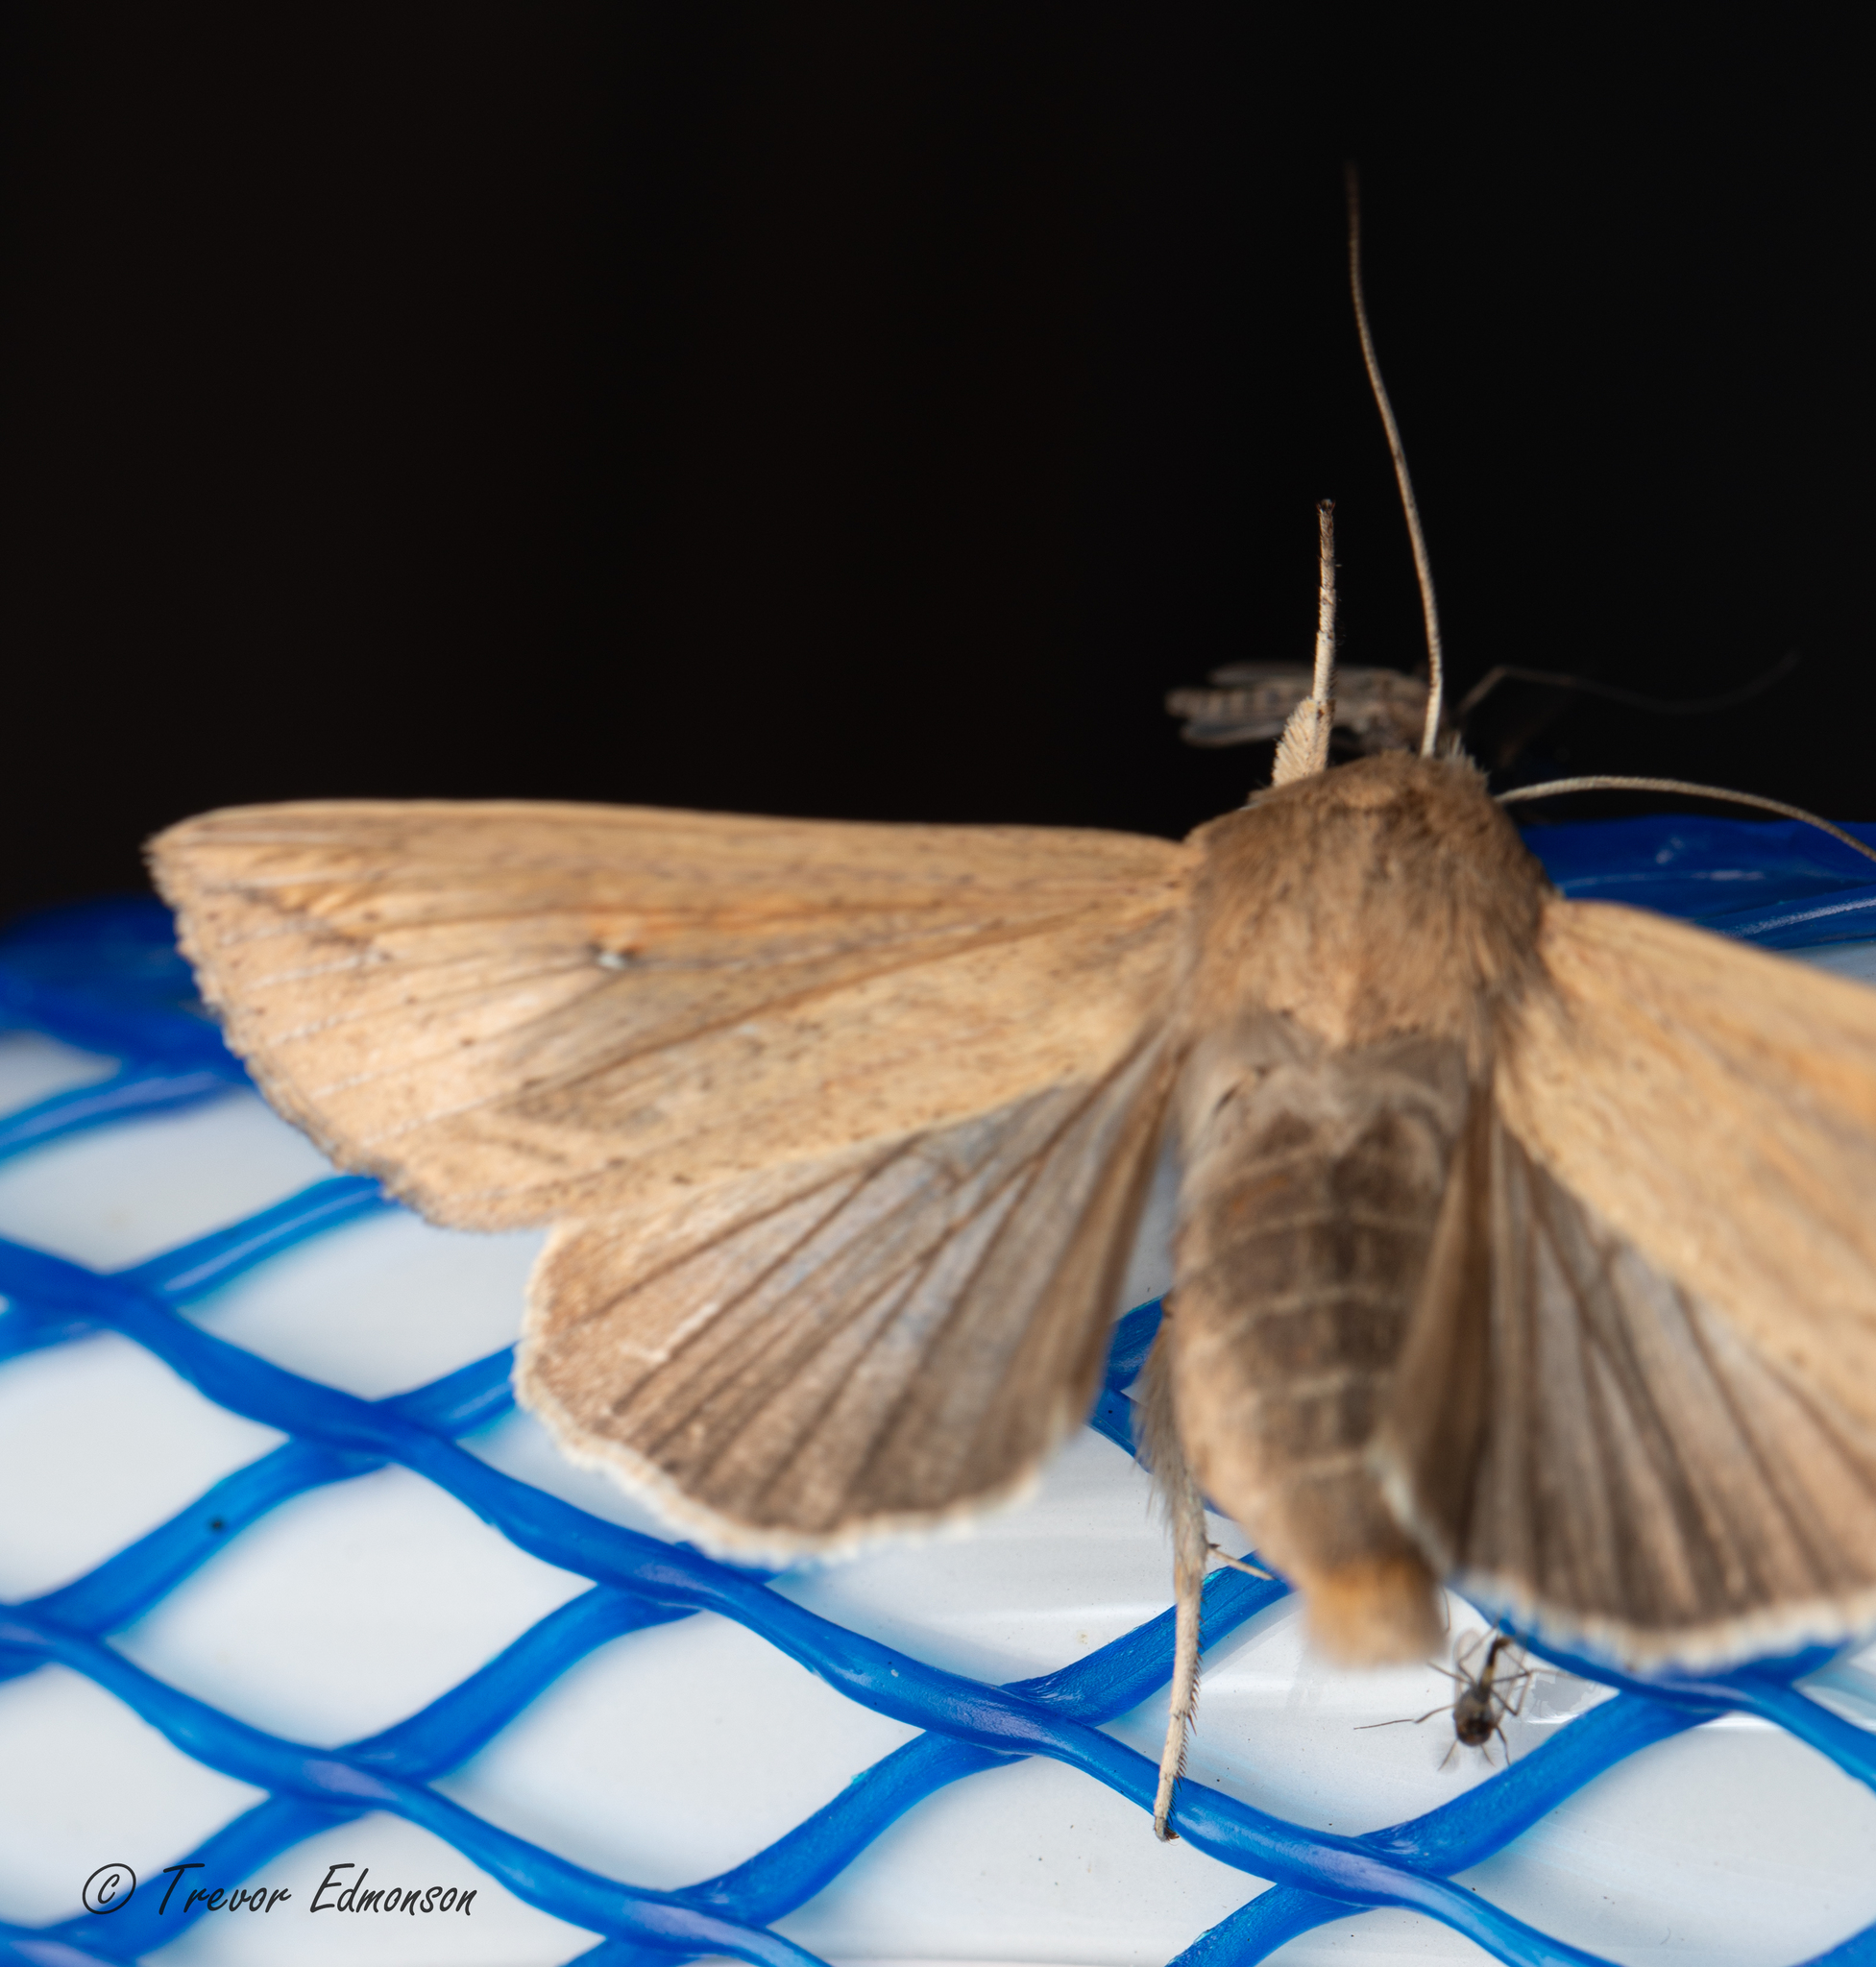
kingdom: Animalia
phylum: Arthropoda
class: Insecta
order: Lepidoptera
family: Noctuidae
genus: Mythimna
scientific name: Mythimna unipuncta
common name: White-speck
